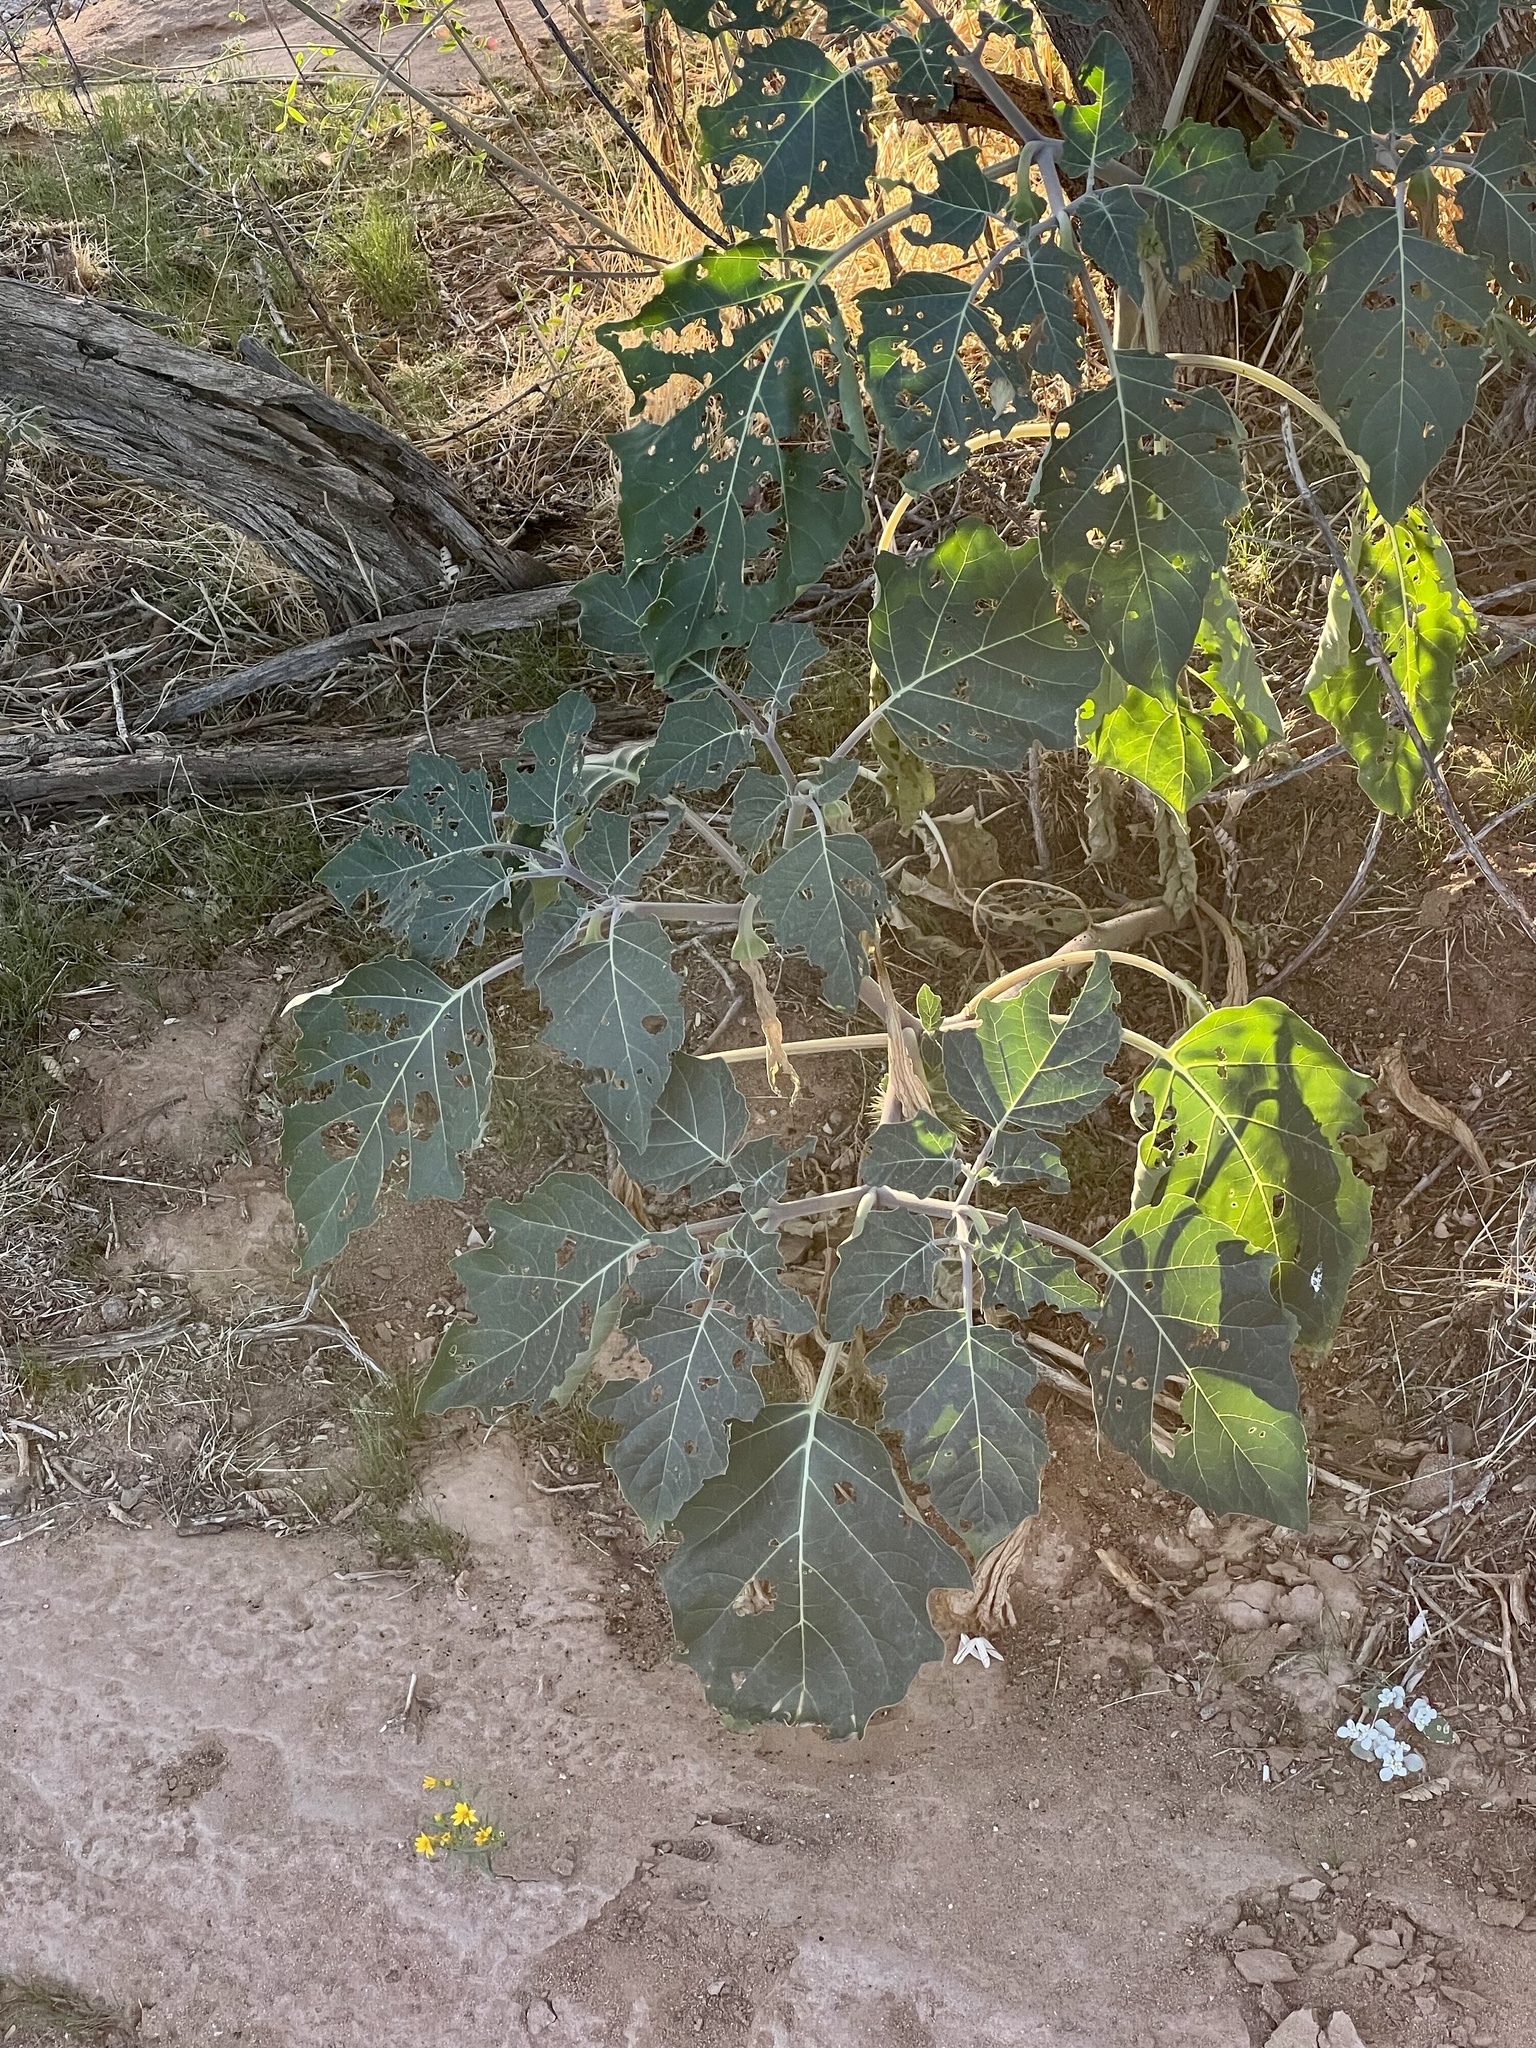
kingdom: Plantae
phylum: Tracheophyta
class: Magnoliopsida
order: Solanales
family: Solanaceae
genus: Datura
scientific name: Datura wrightii
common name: Sacred thorn-apple
